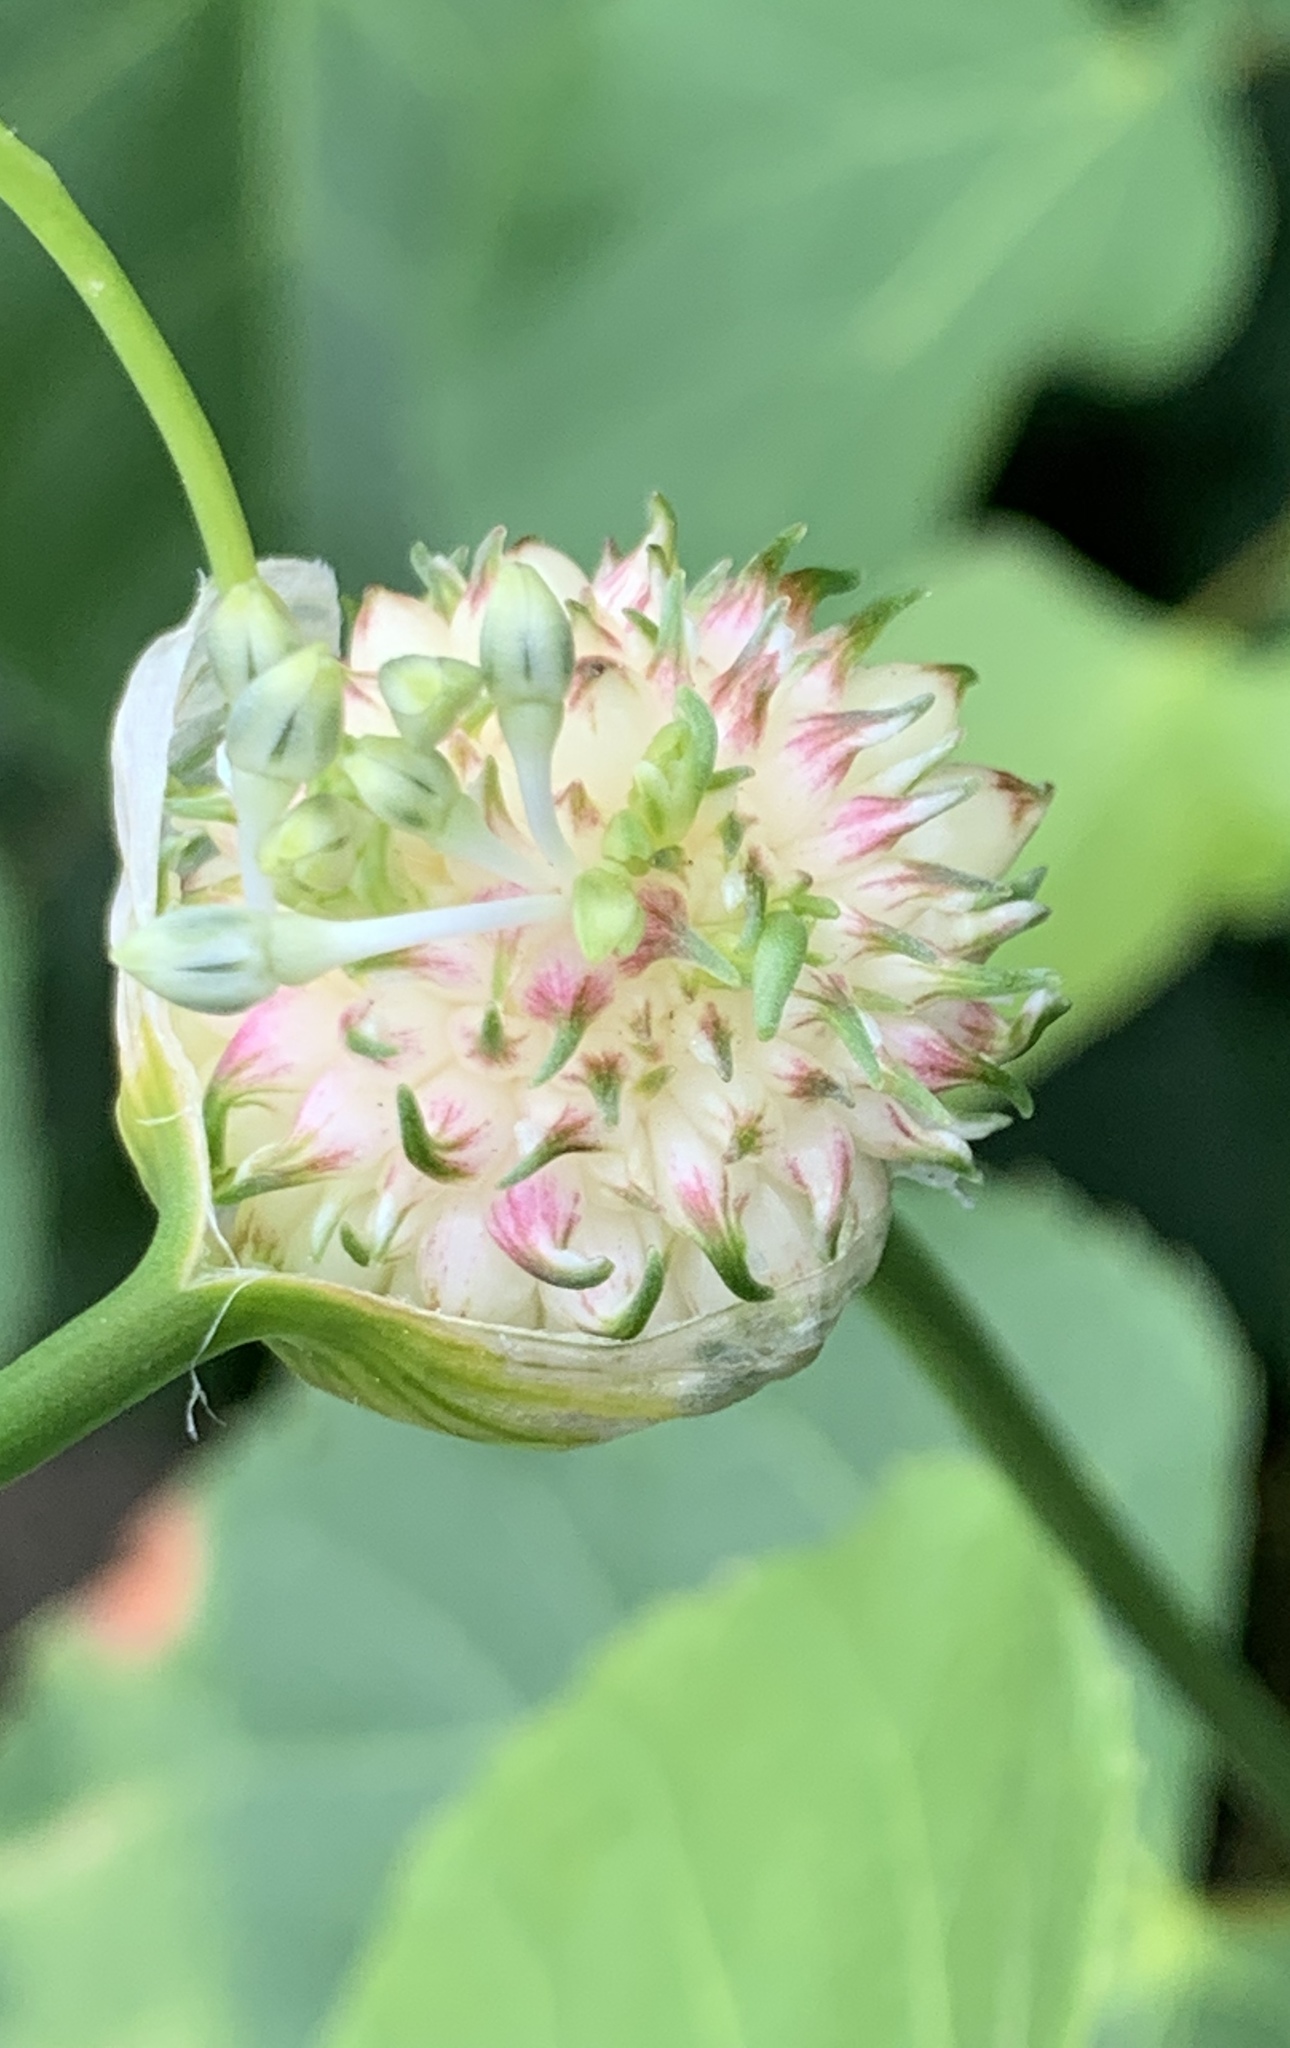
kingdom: Plantae
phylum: Tracheophyta
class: Liliopsida
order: Asparagales
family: Amaryllidaceae
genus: Allium
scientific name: Allium vineale
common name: Crow garlic
